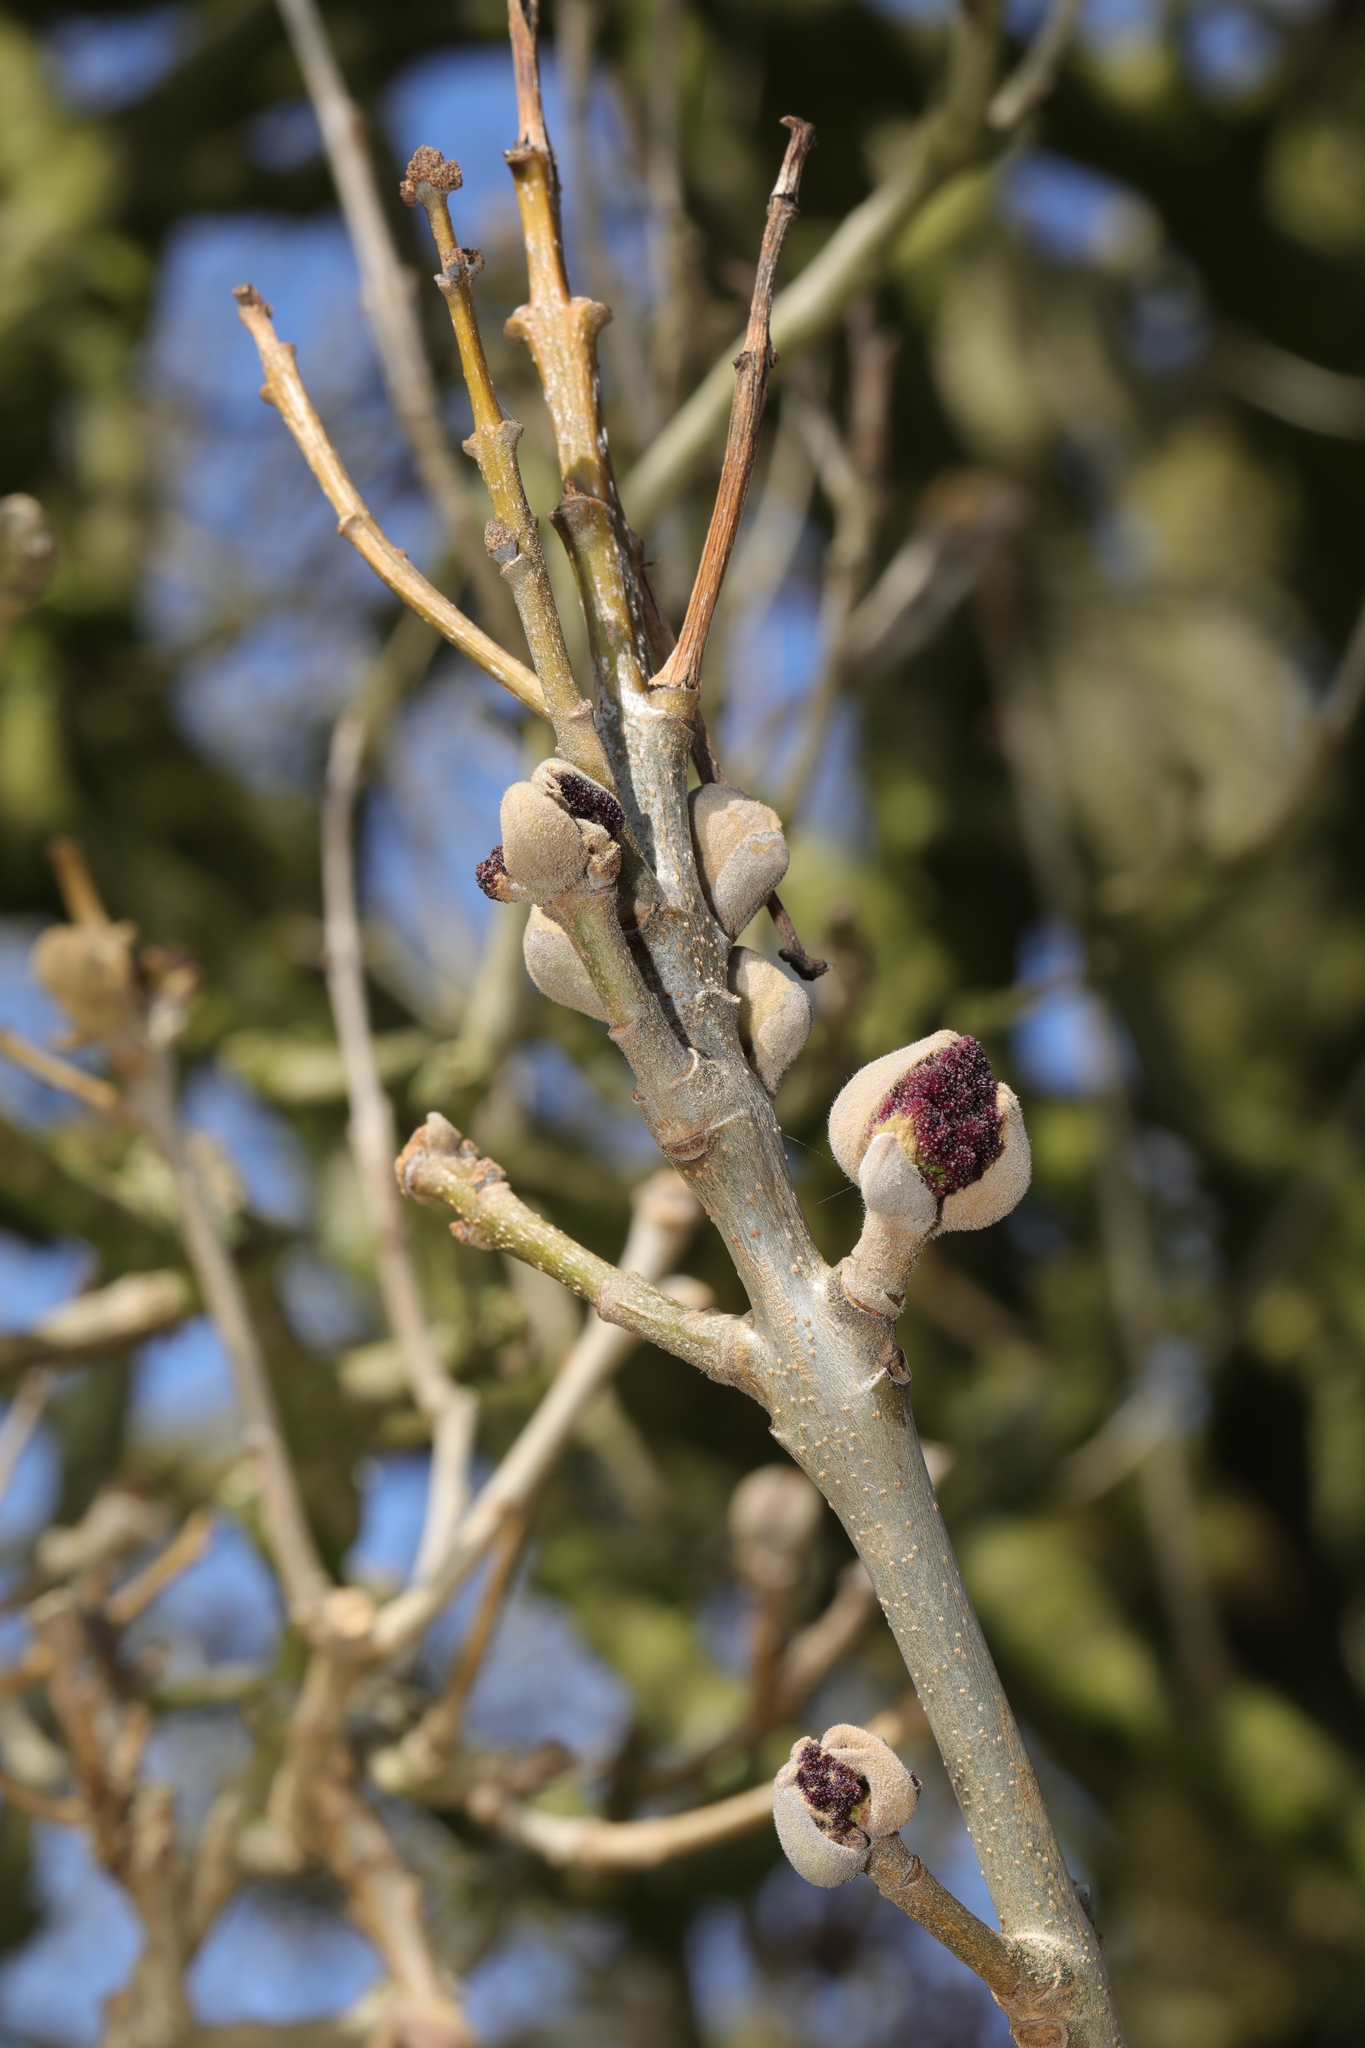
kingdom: Plantae
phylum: Tracheophyta
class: Magnoliopsida
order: Lamiales
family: Oleaceae
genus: Fraxinus
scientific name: Fraxinus excelsior
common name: European ash
